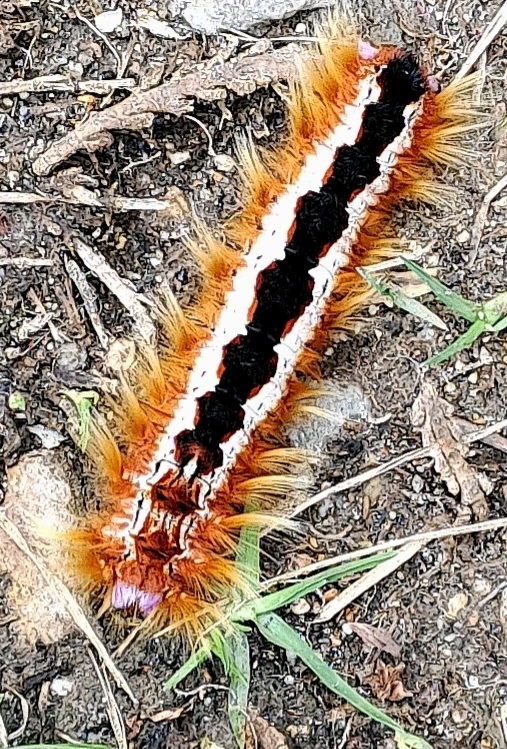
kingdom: Animalia
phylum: Arthropoda
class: Insecta
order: Lepidoptera
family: Lasiocampidae
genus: Eutricha
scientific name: Eutricha capensis
